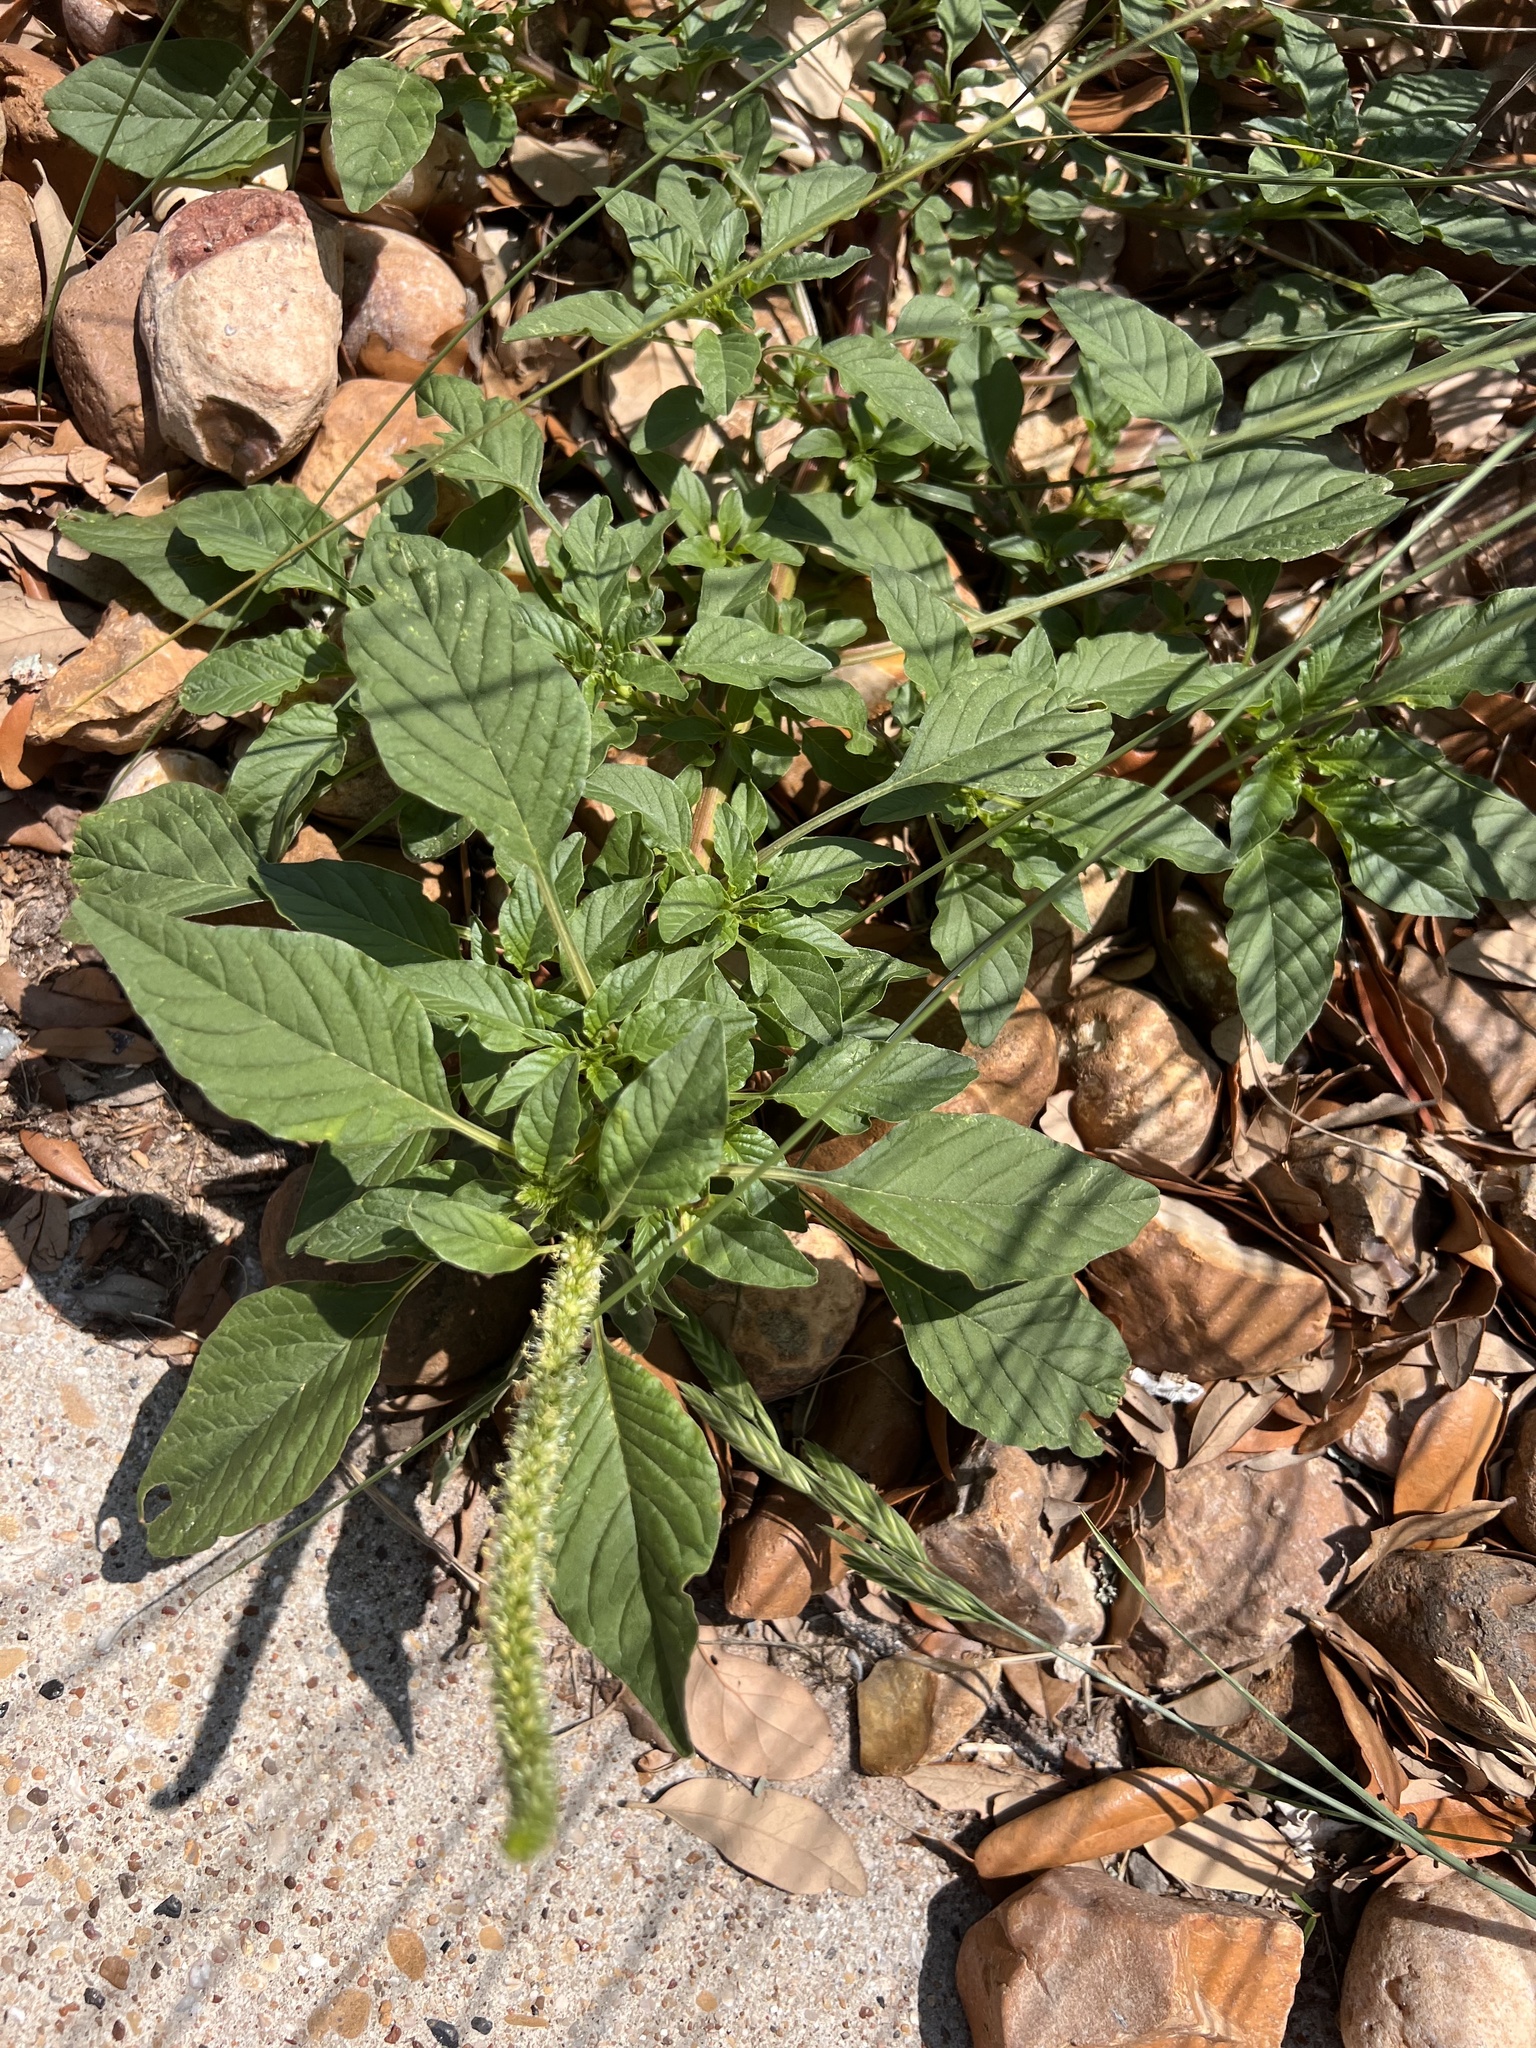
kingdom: Plantae
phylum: Tracheophyta
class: Magnoliopsida
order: Caryophyllales
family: Amaranthaceae
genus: Amaranthus
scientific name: Amaranthus palmeri
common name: Dioecious amaranth
